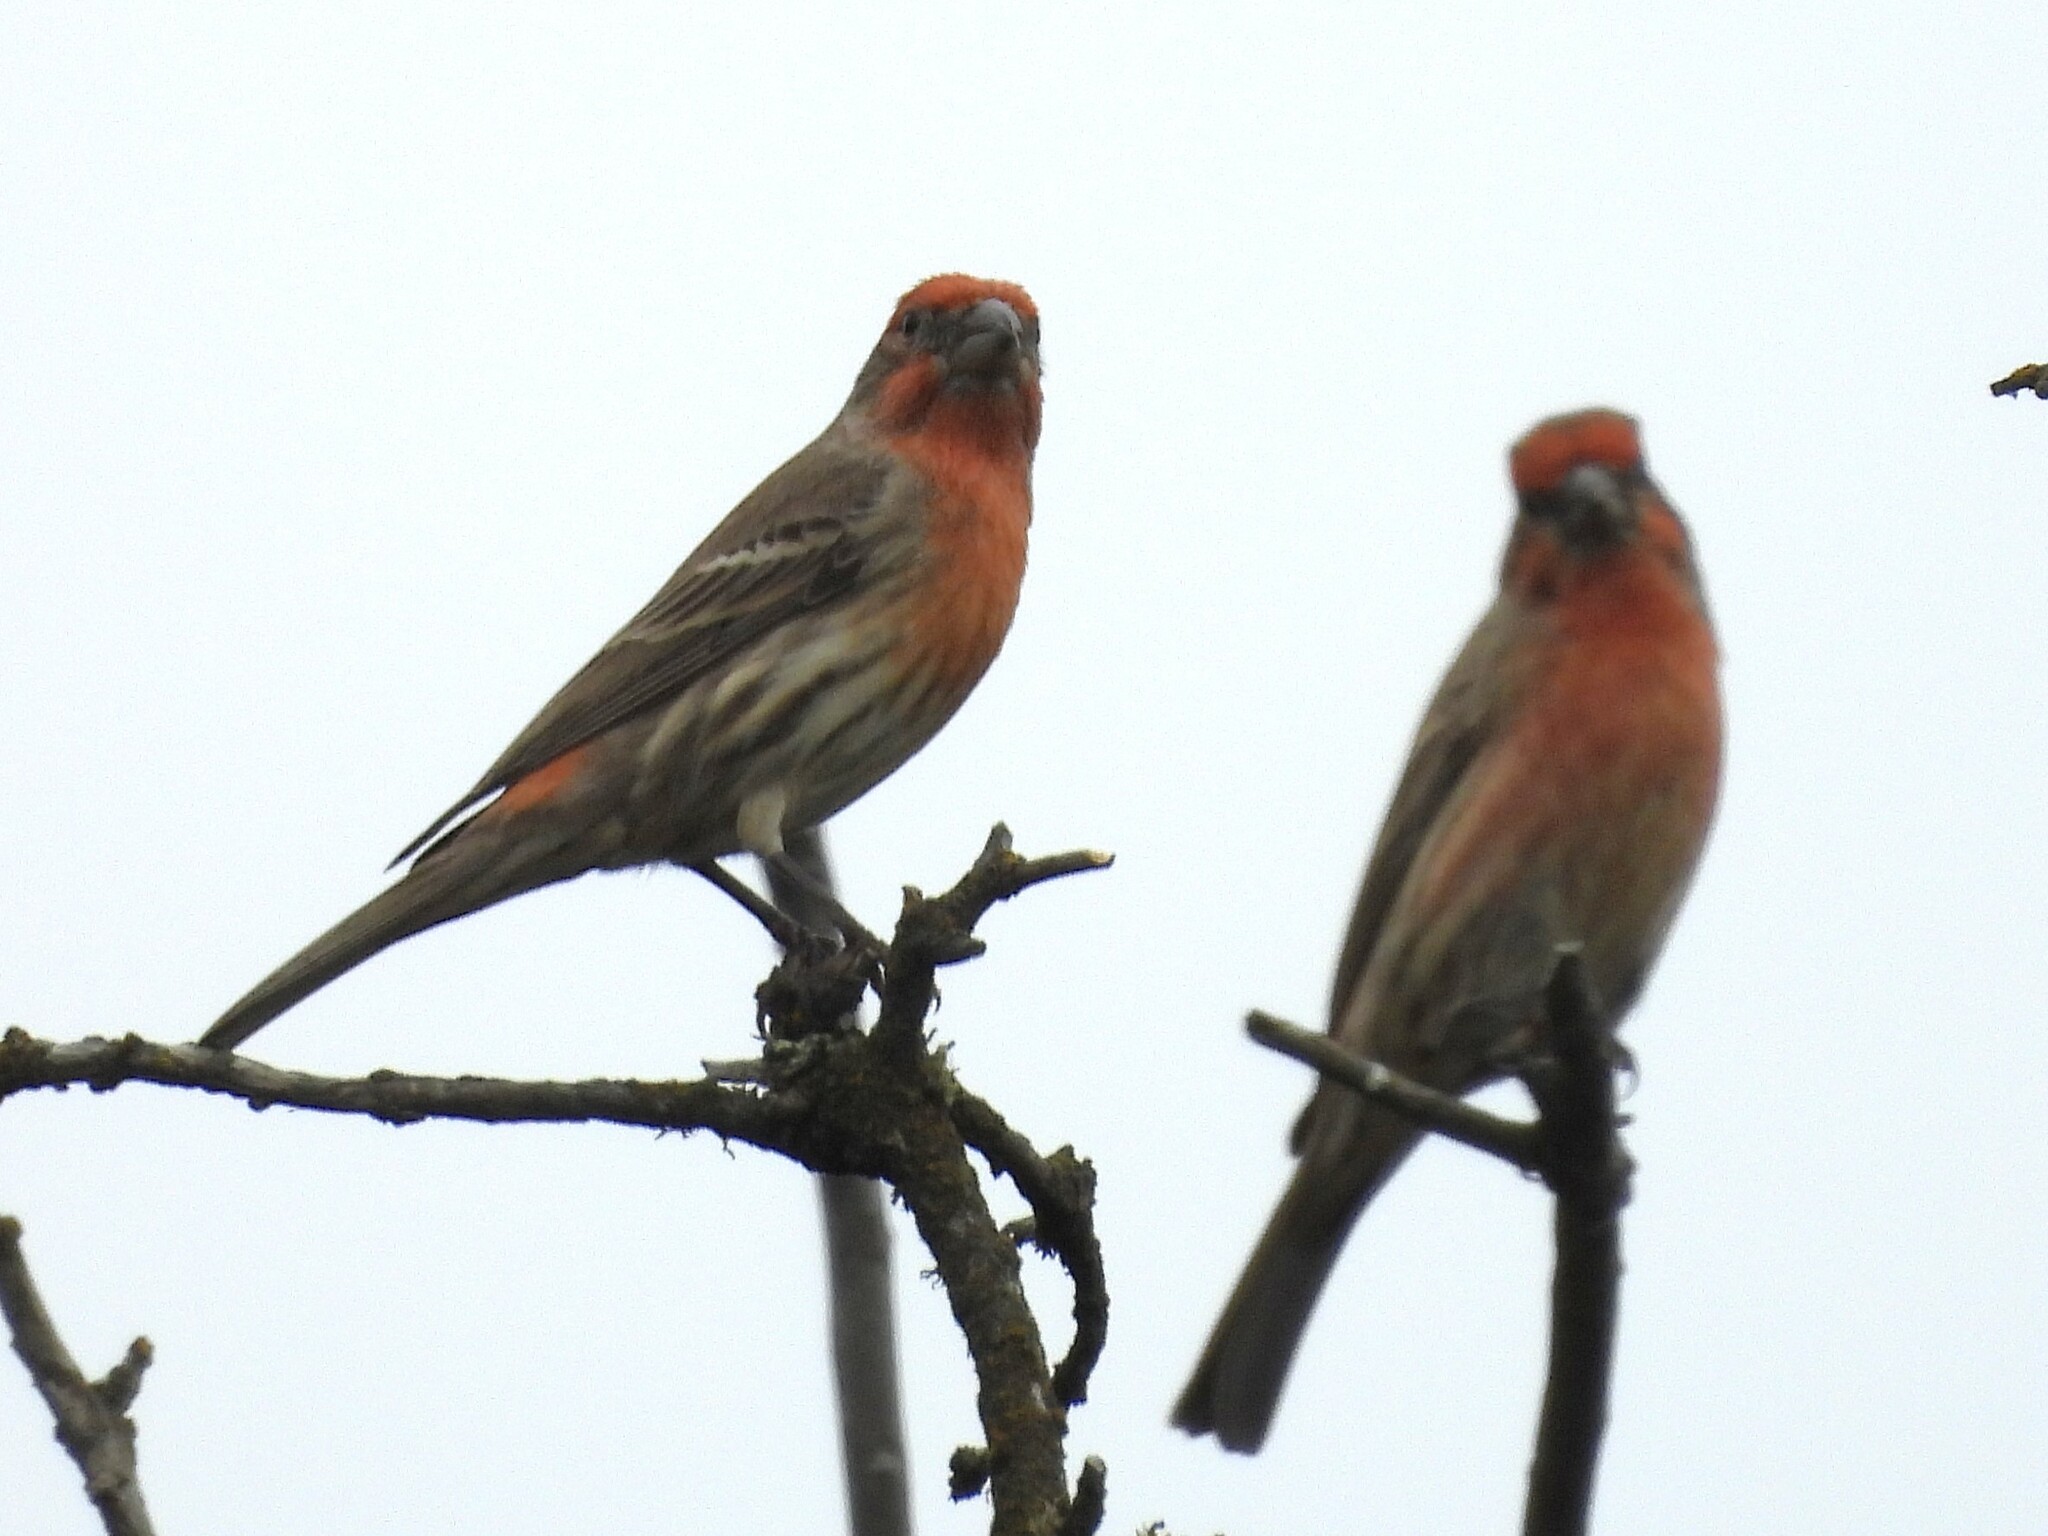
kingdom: Animalia
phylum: Chordata
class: Aves
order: Passeriformes
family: Fringillidae
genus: Haemorhous
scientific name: Haemorhous mexicanus
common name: House finch
